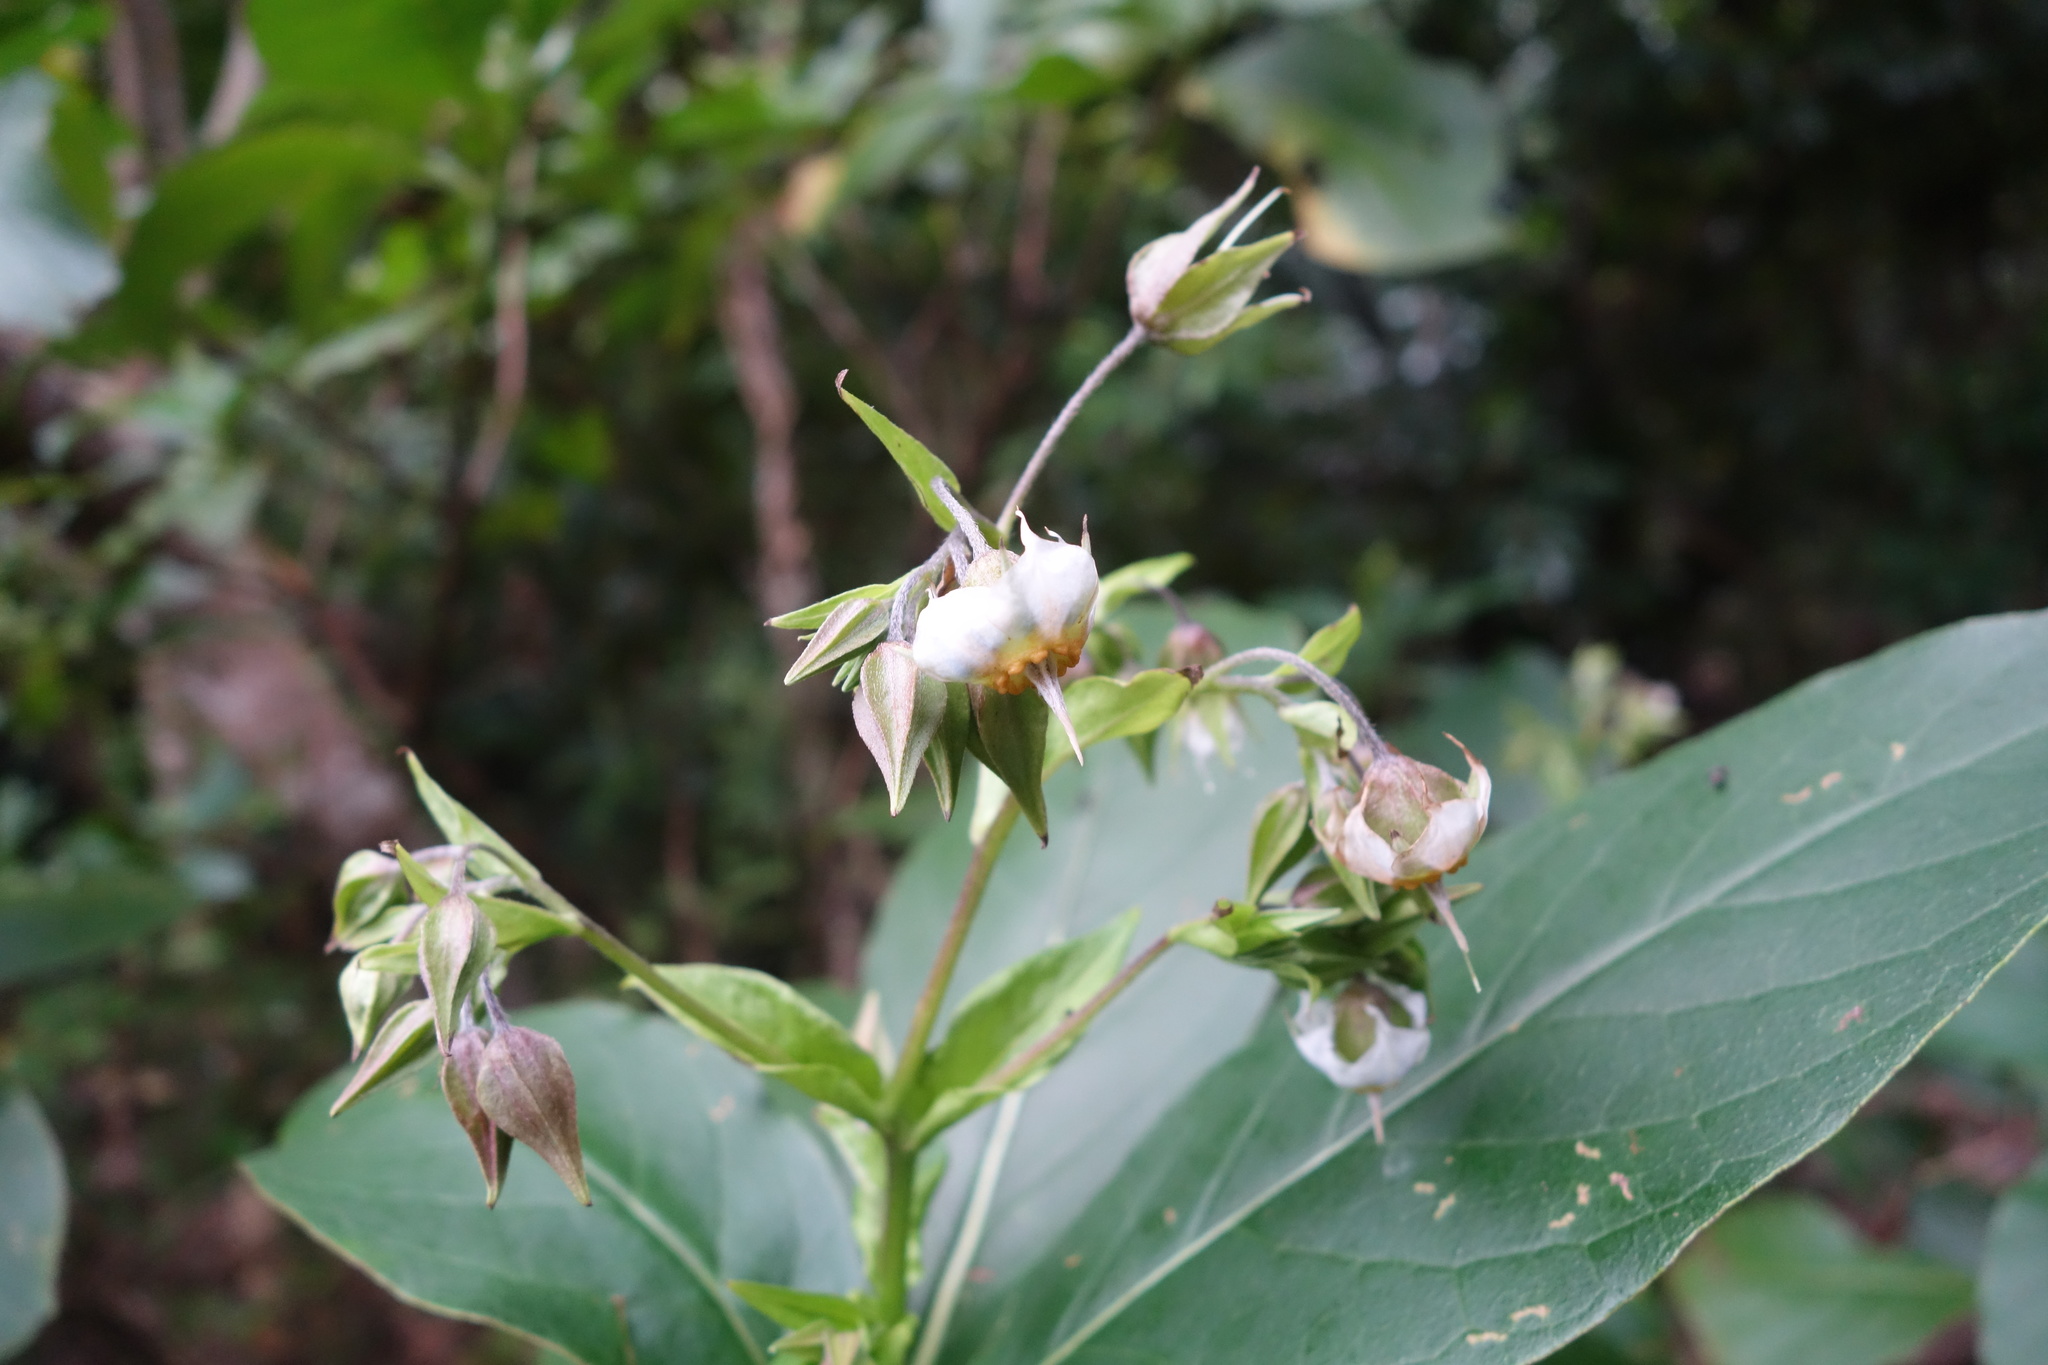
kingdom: Plantae
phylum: Tracheophyta
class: Magnoliopsida
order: Boraginales
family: Boraginaceae
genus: Trichodesma
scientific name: Trichodesma calycosum
